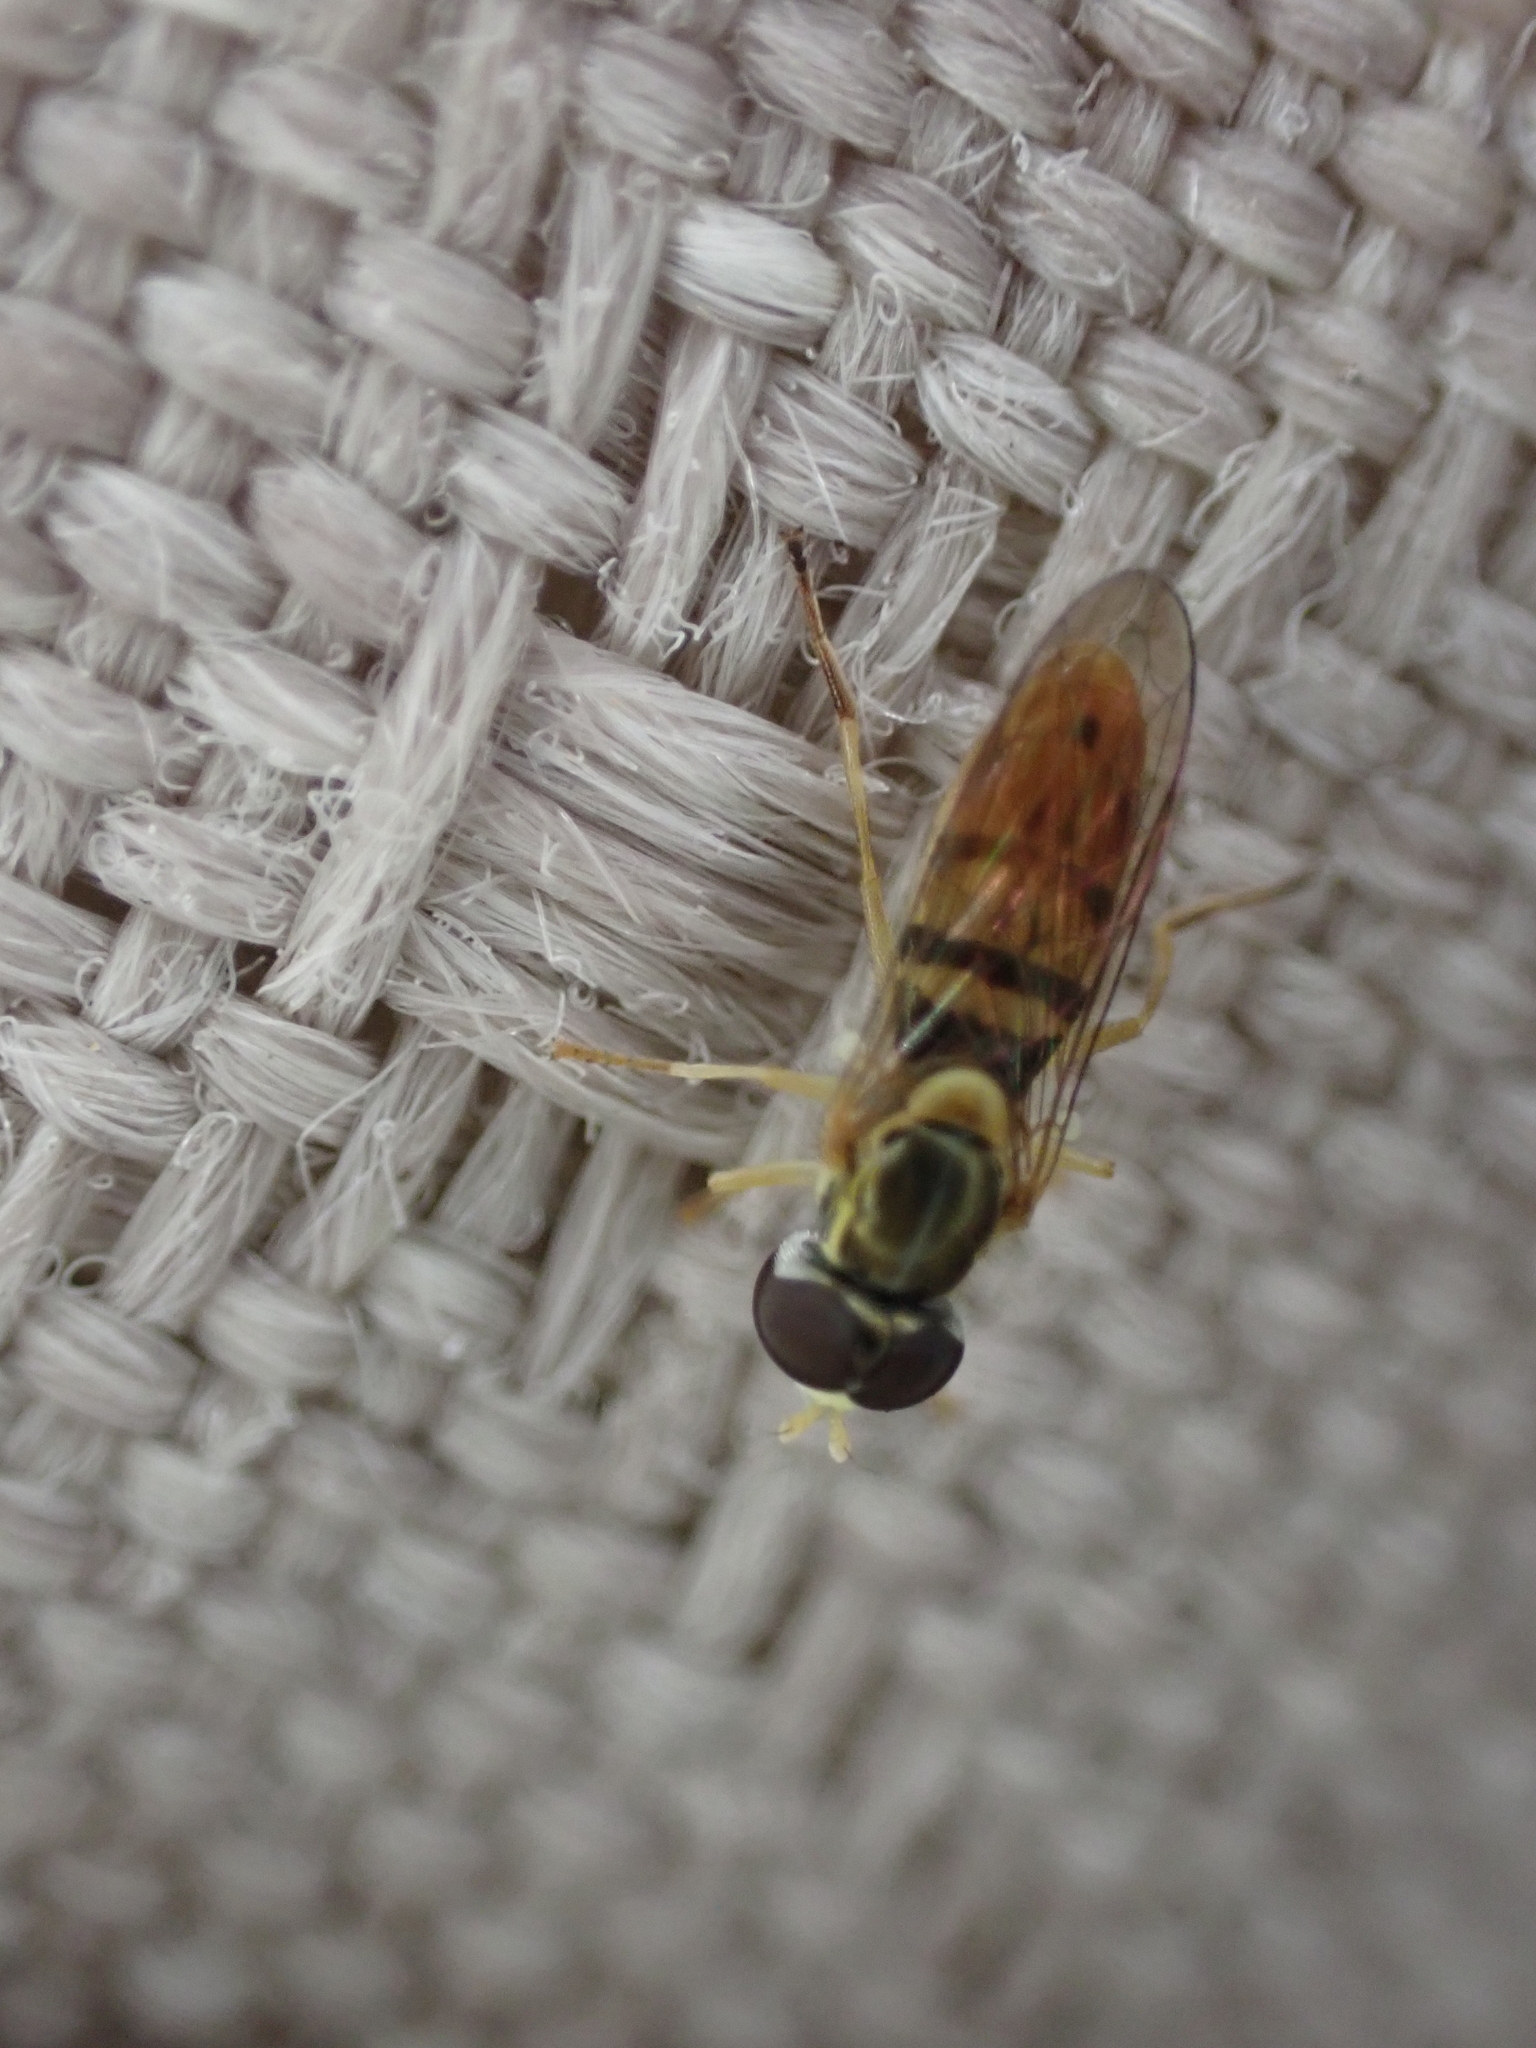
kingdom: Animalia
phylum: Arthropoda
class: Insecta
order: Diptera
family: Syrphidae
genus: Toxomerus
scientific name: Toxomerus marginatus
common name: Syrphid fly
